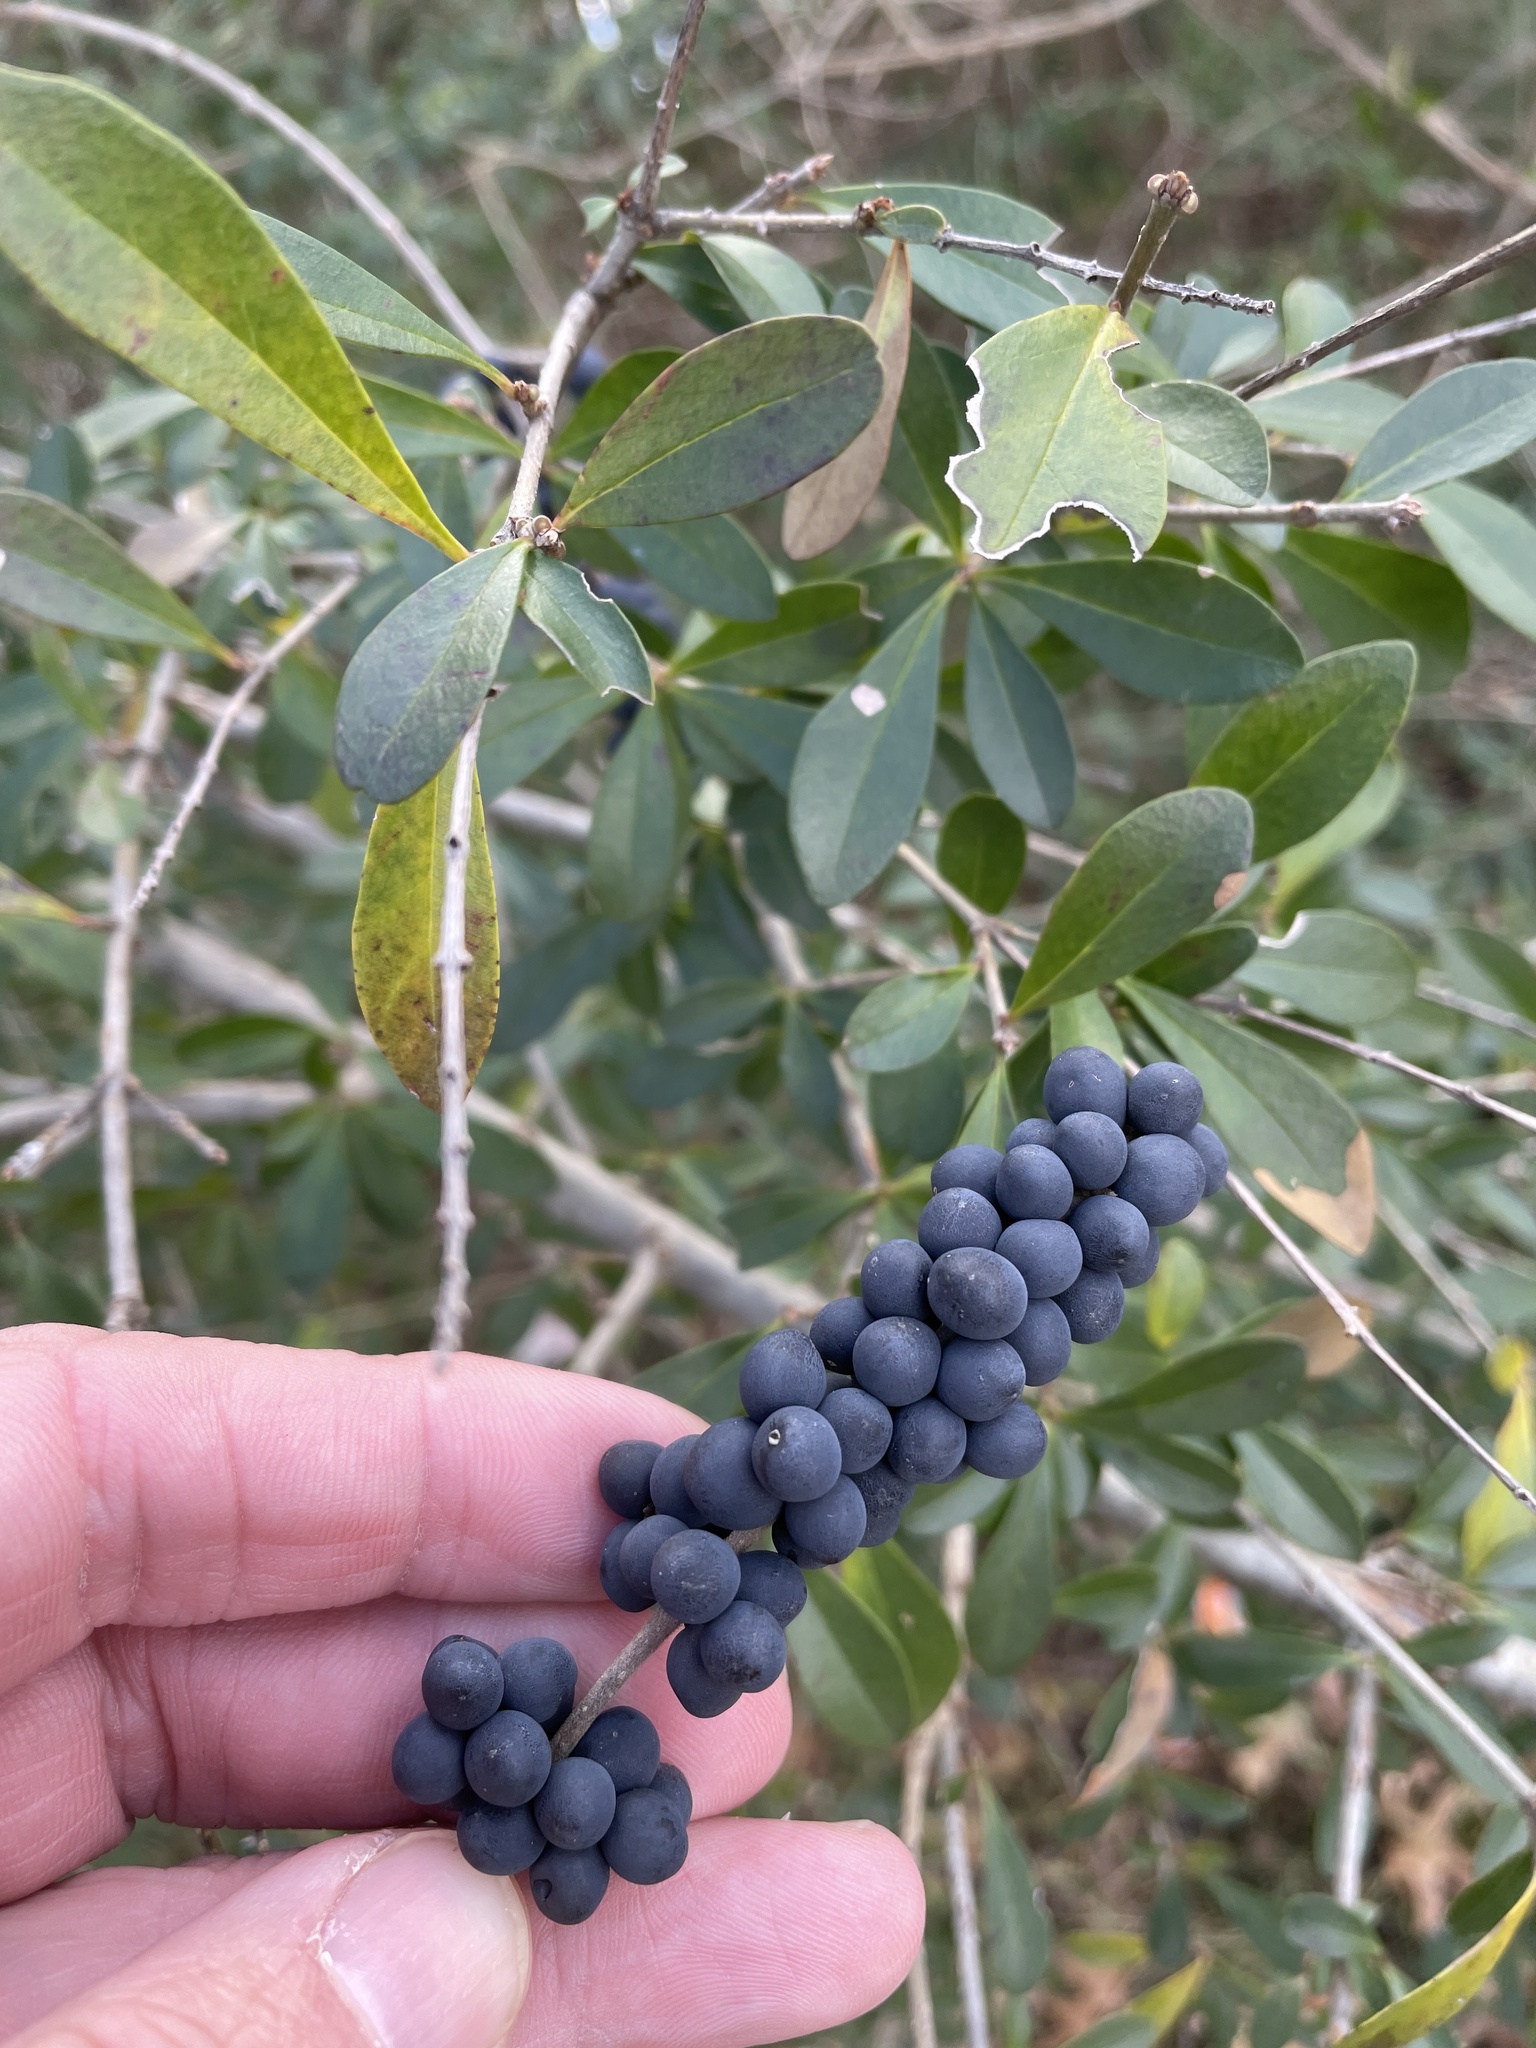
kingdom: Plantae
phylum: Tracheophyta
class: Magnoliopsida
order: Lamiales
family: Oleaceae
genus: Ligustrum
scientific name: Ligustrum quihoui
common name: Waxyleaf privet
